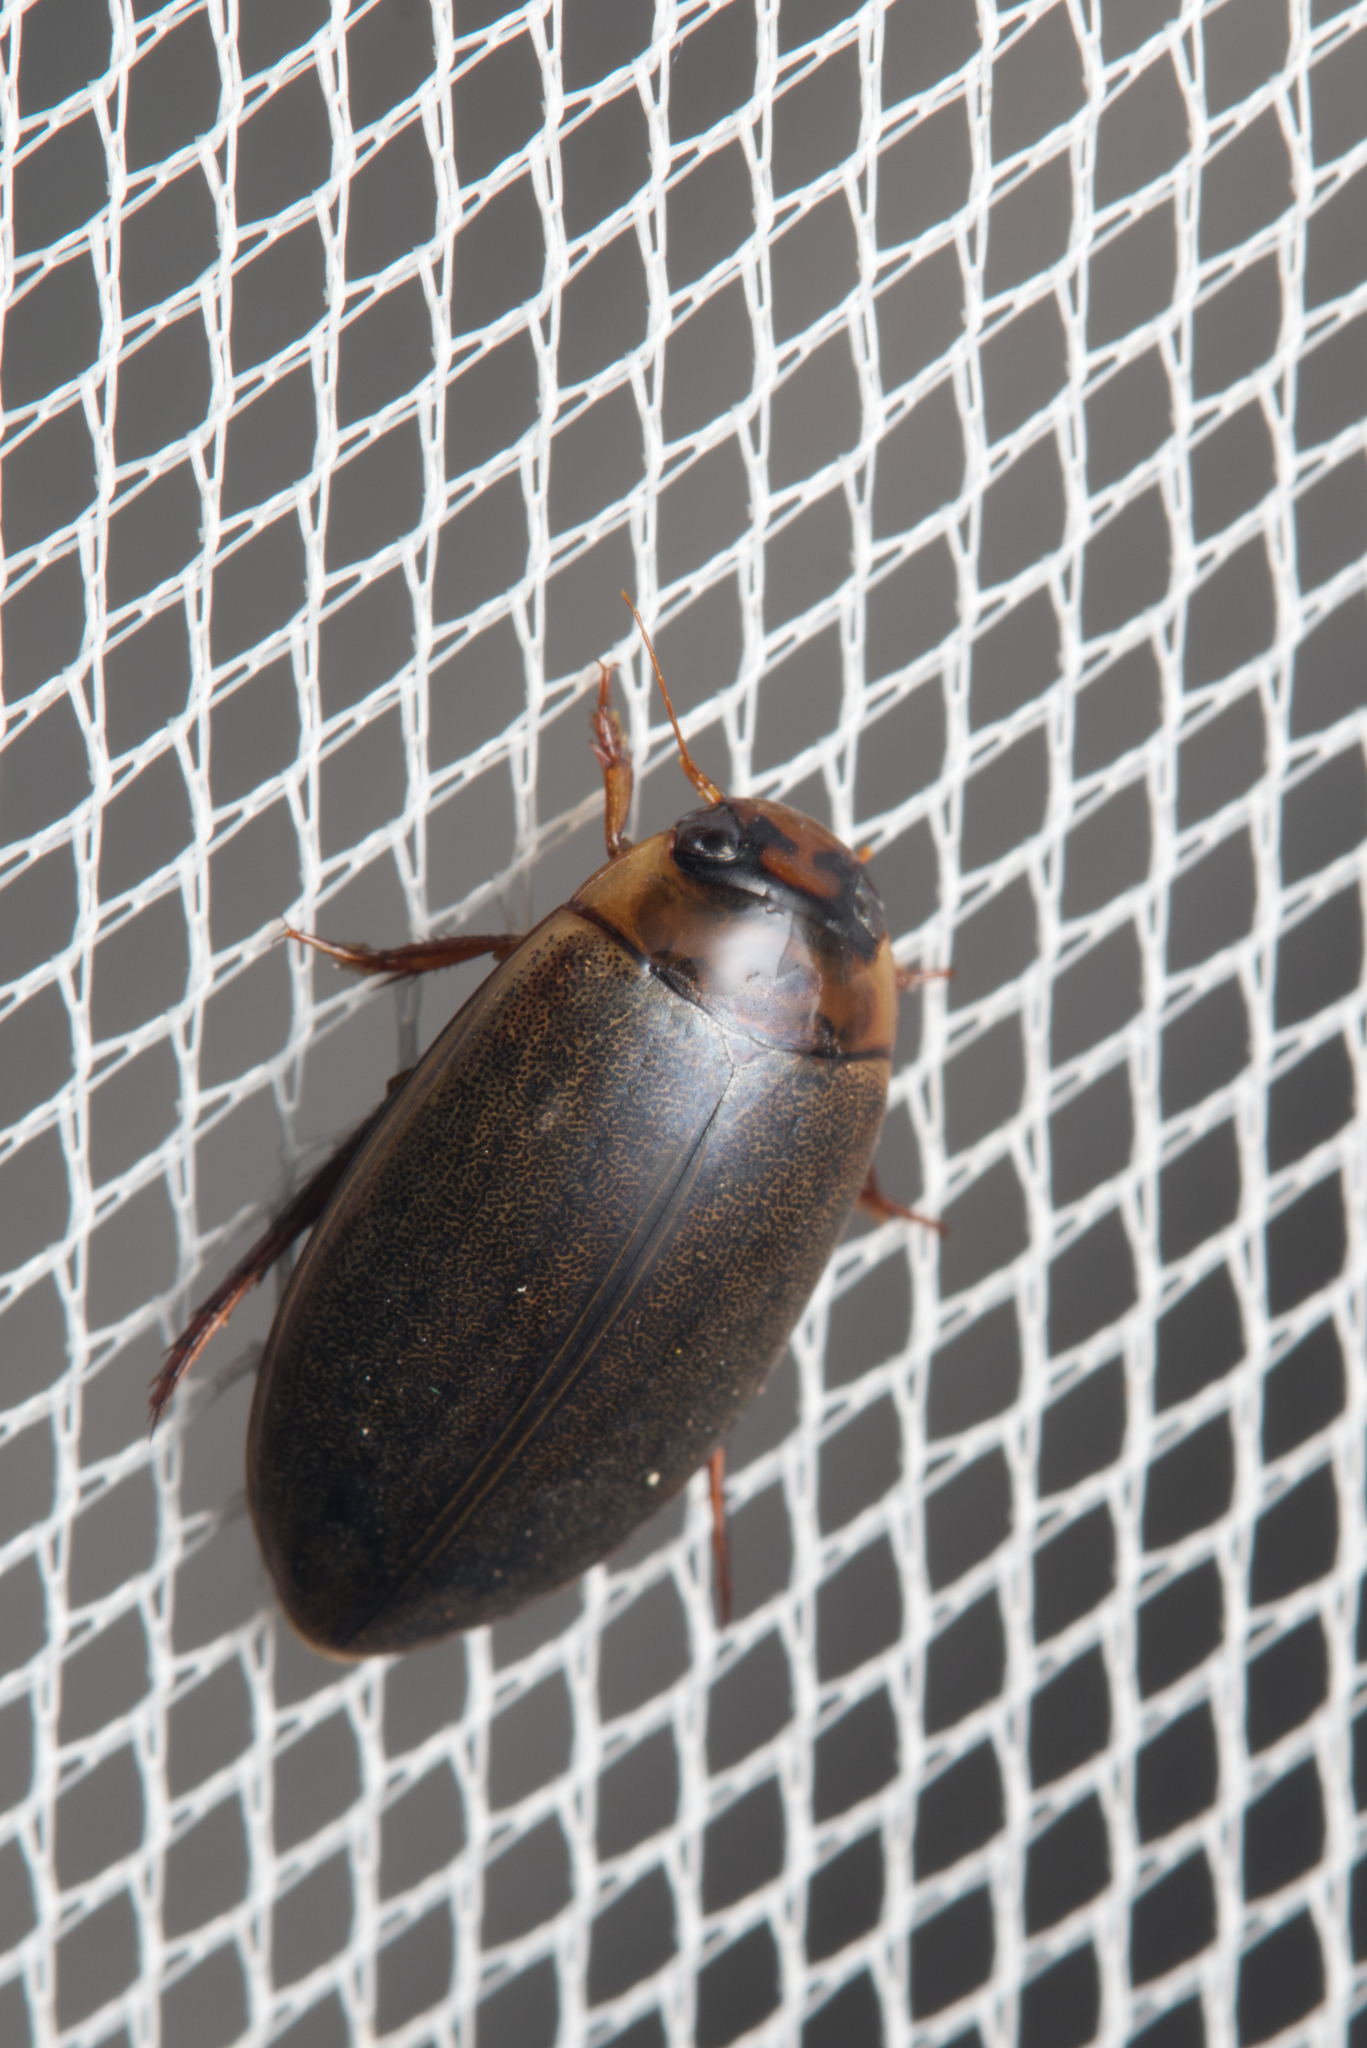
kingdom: Animalia
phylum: Arthropoda
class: Insecta
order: Coleoptera
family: Dytiscidae
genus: Rhantus
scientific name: Rhantus suturalis
